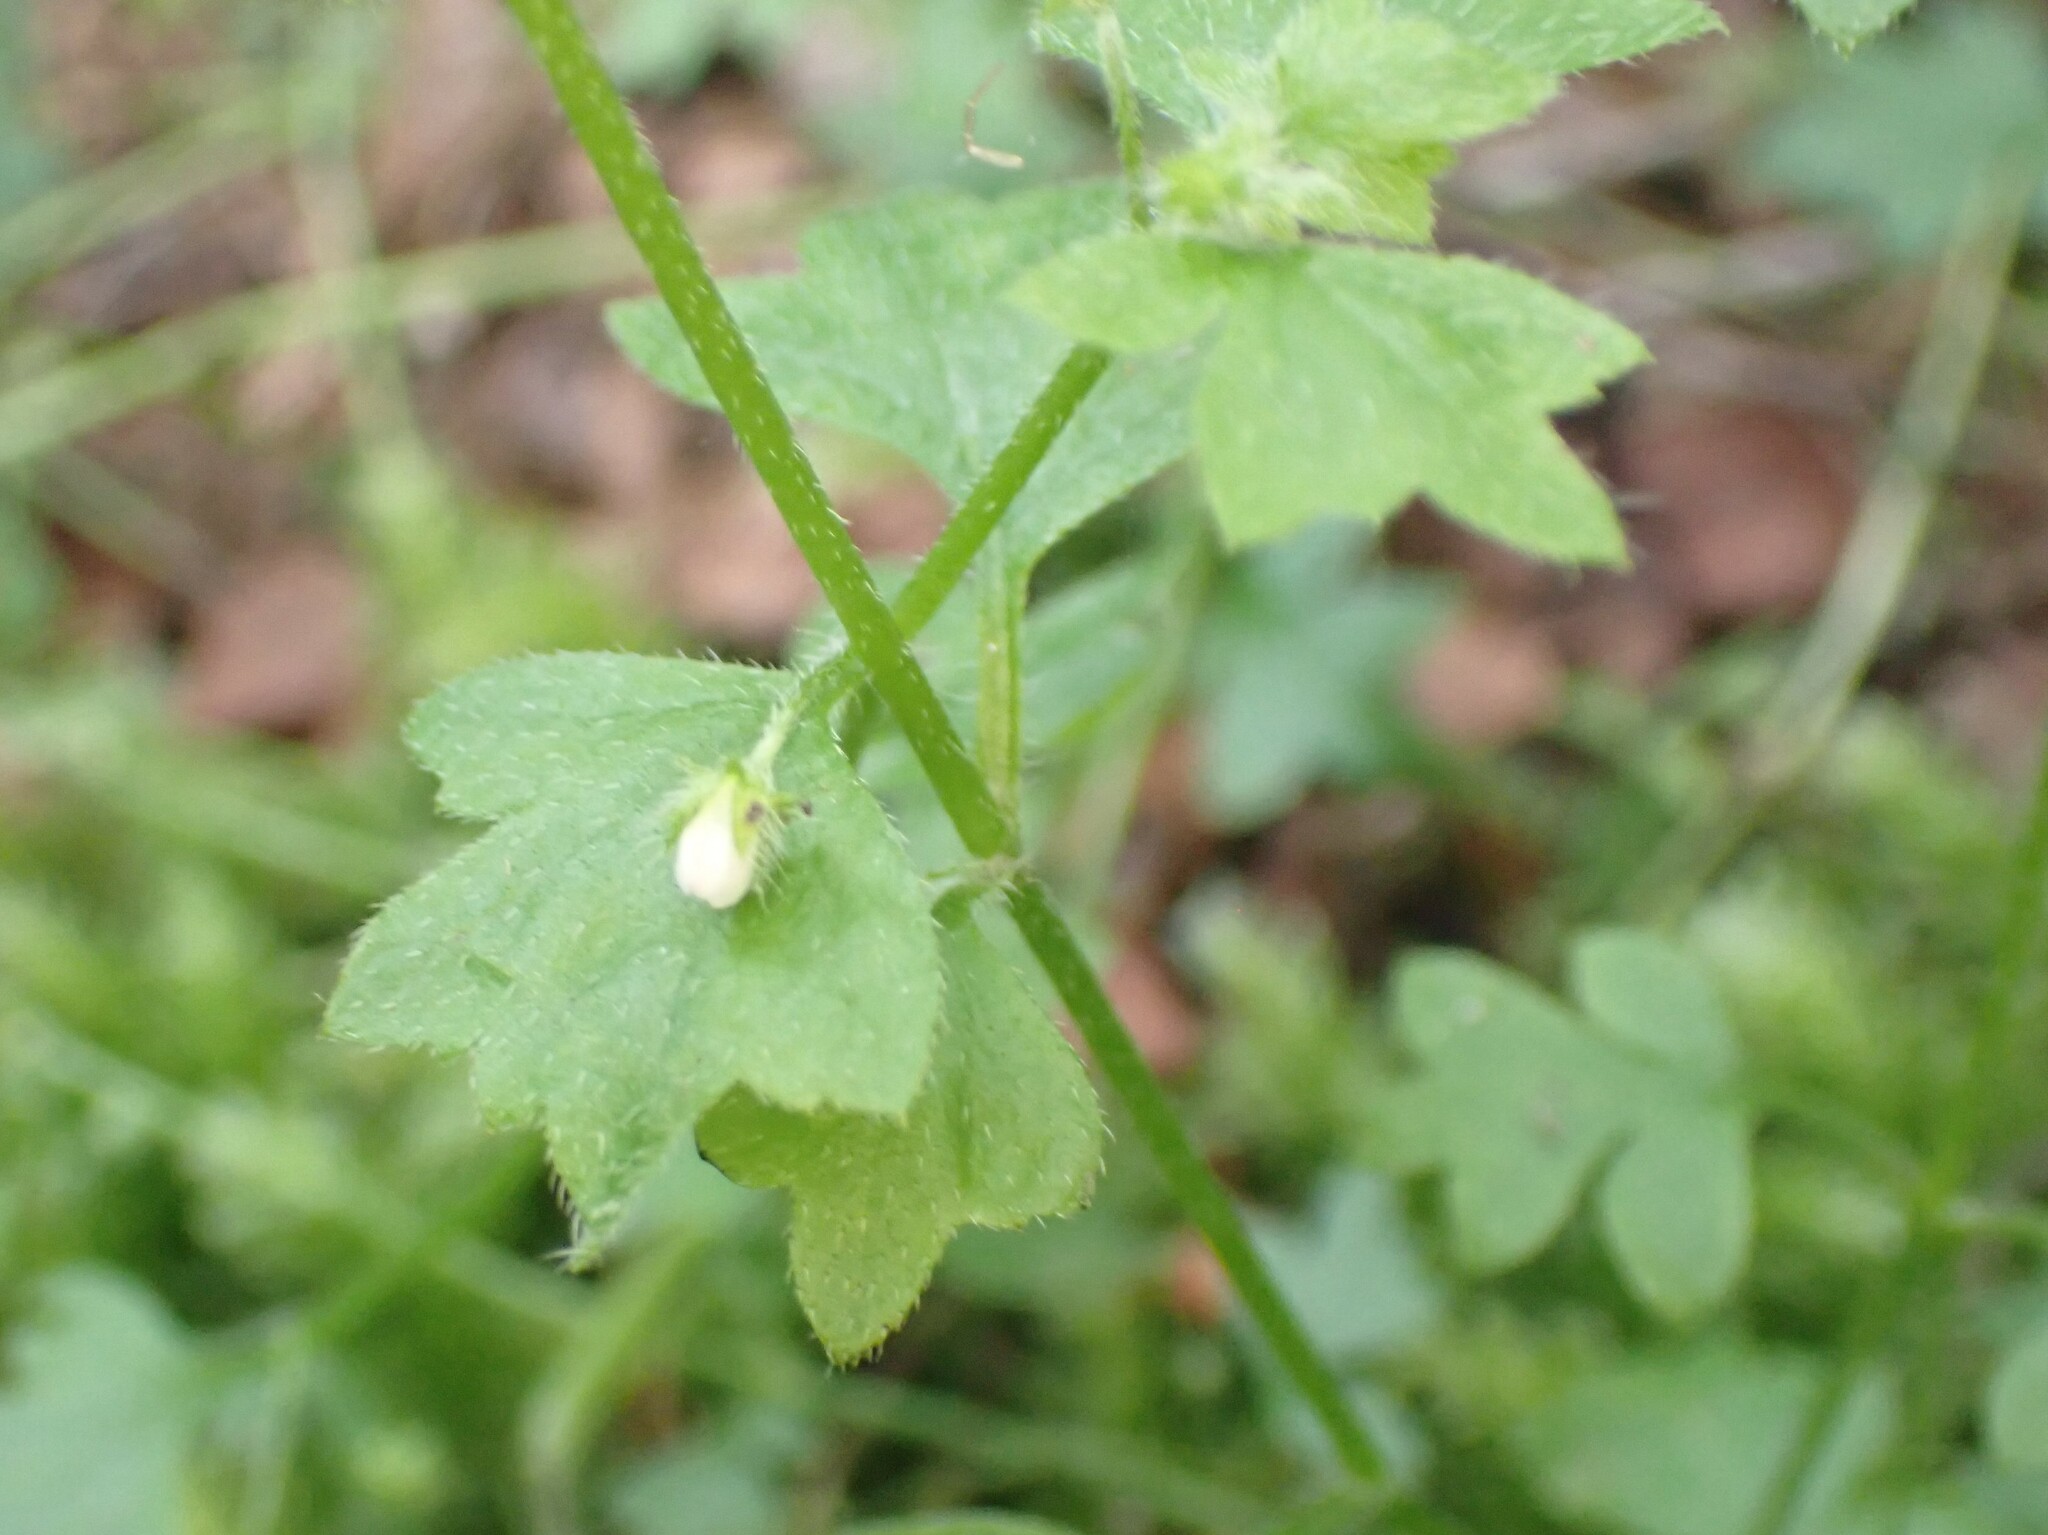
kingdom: Plantae
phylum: Tracheophyta
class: Magnoliopsida
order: Boraginales
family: Hydrophyllaceae
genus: Nemophila
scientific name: Nemophila parviflora
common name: Small-flowered baby-blue-eyes
